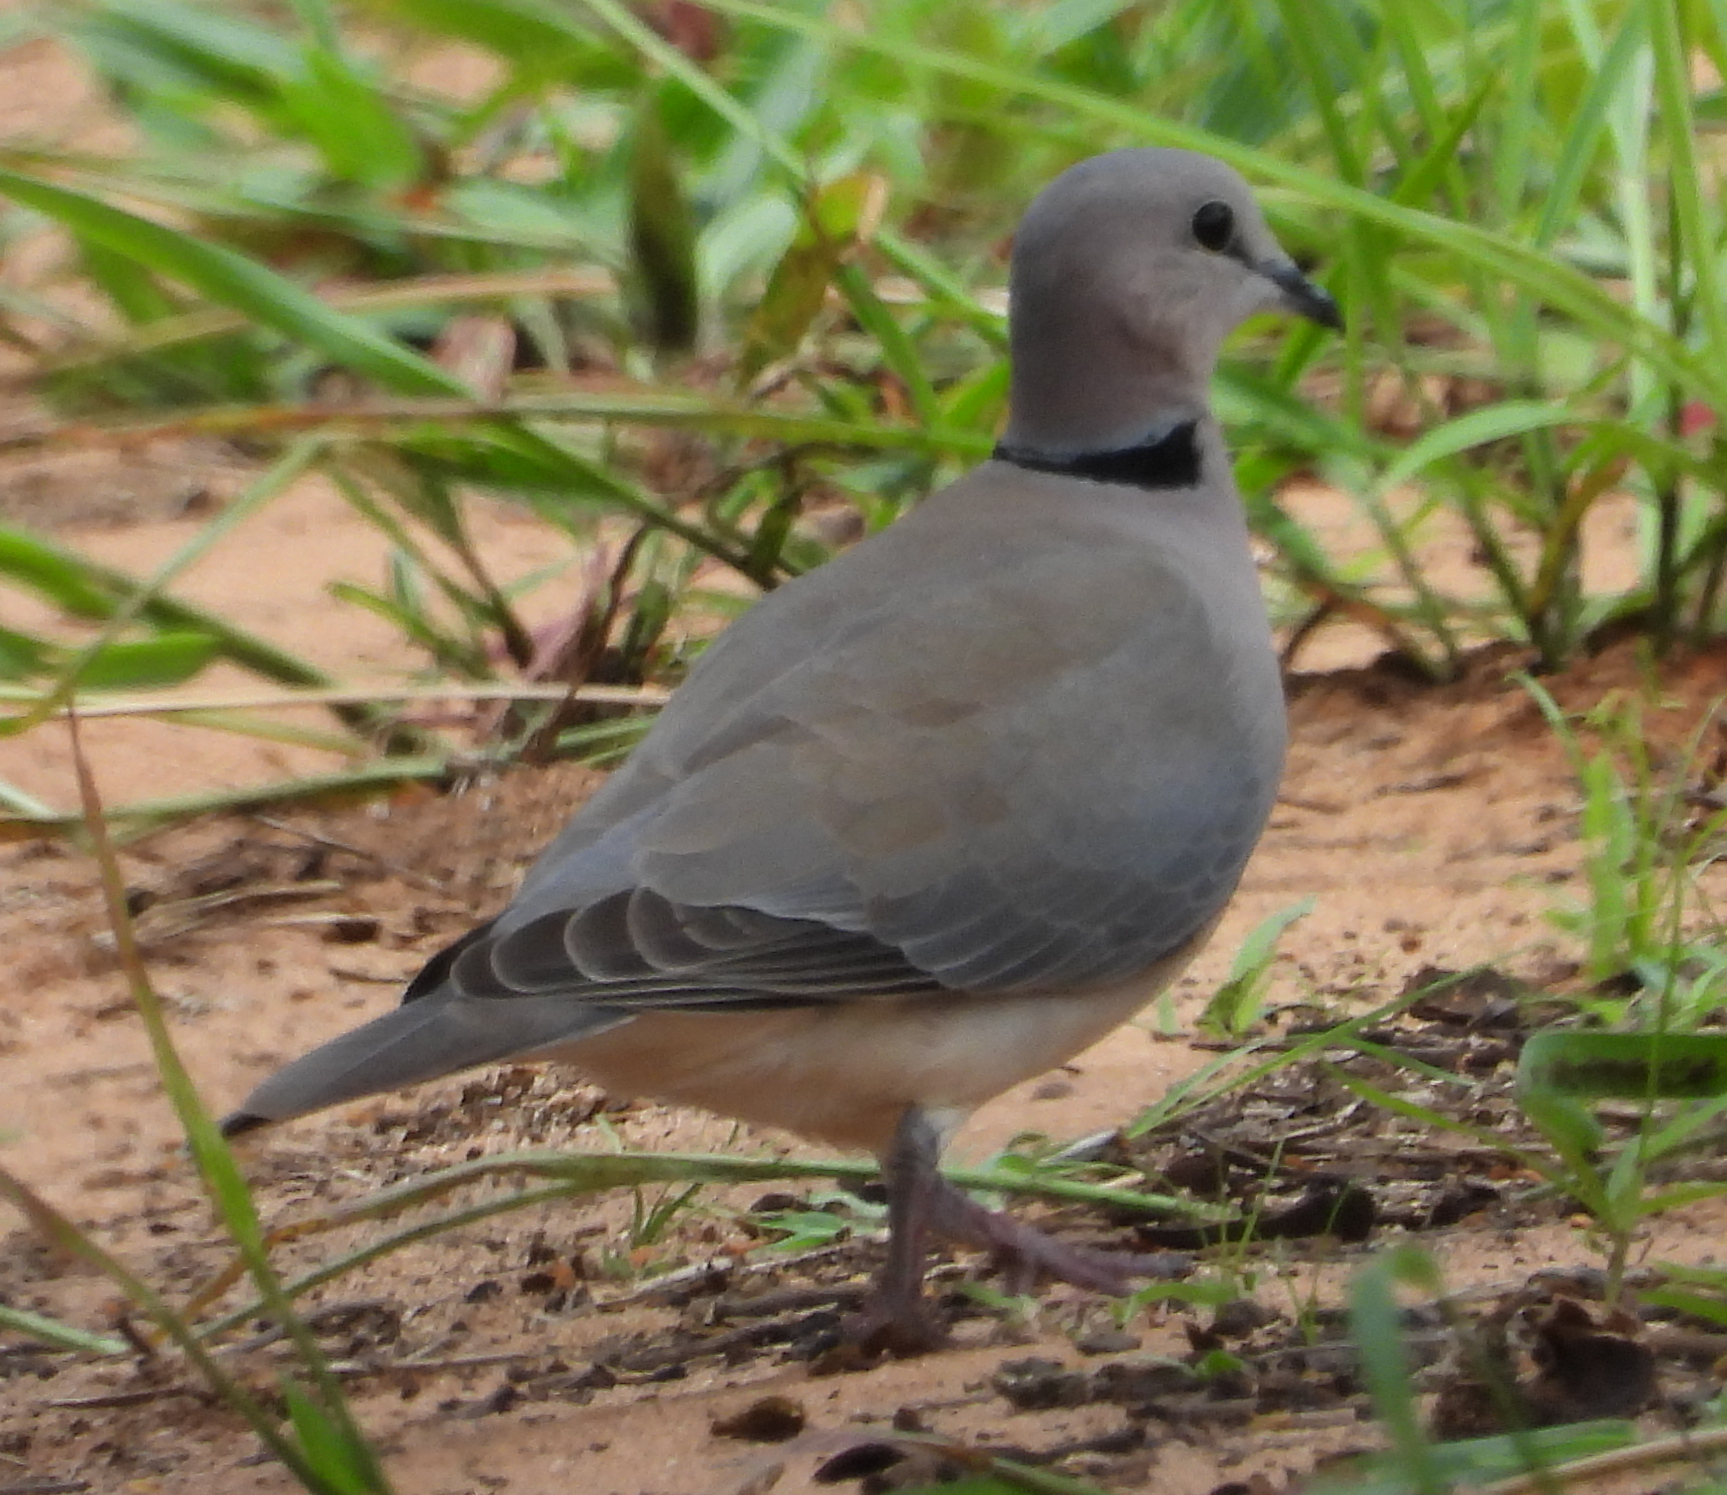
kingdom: Animalia
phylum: Chordata
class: Aves
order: Columbiformes
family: Columbidae
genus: Streptopelia
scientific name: Streptopelia capicola
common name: Ring-necked dove
